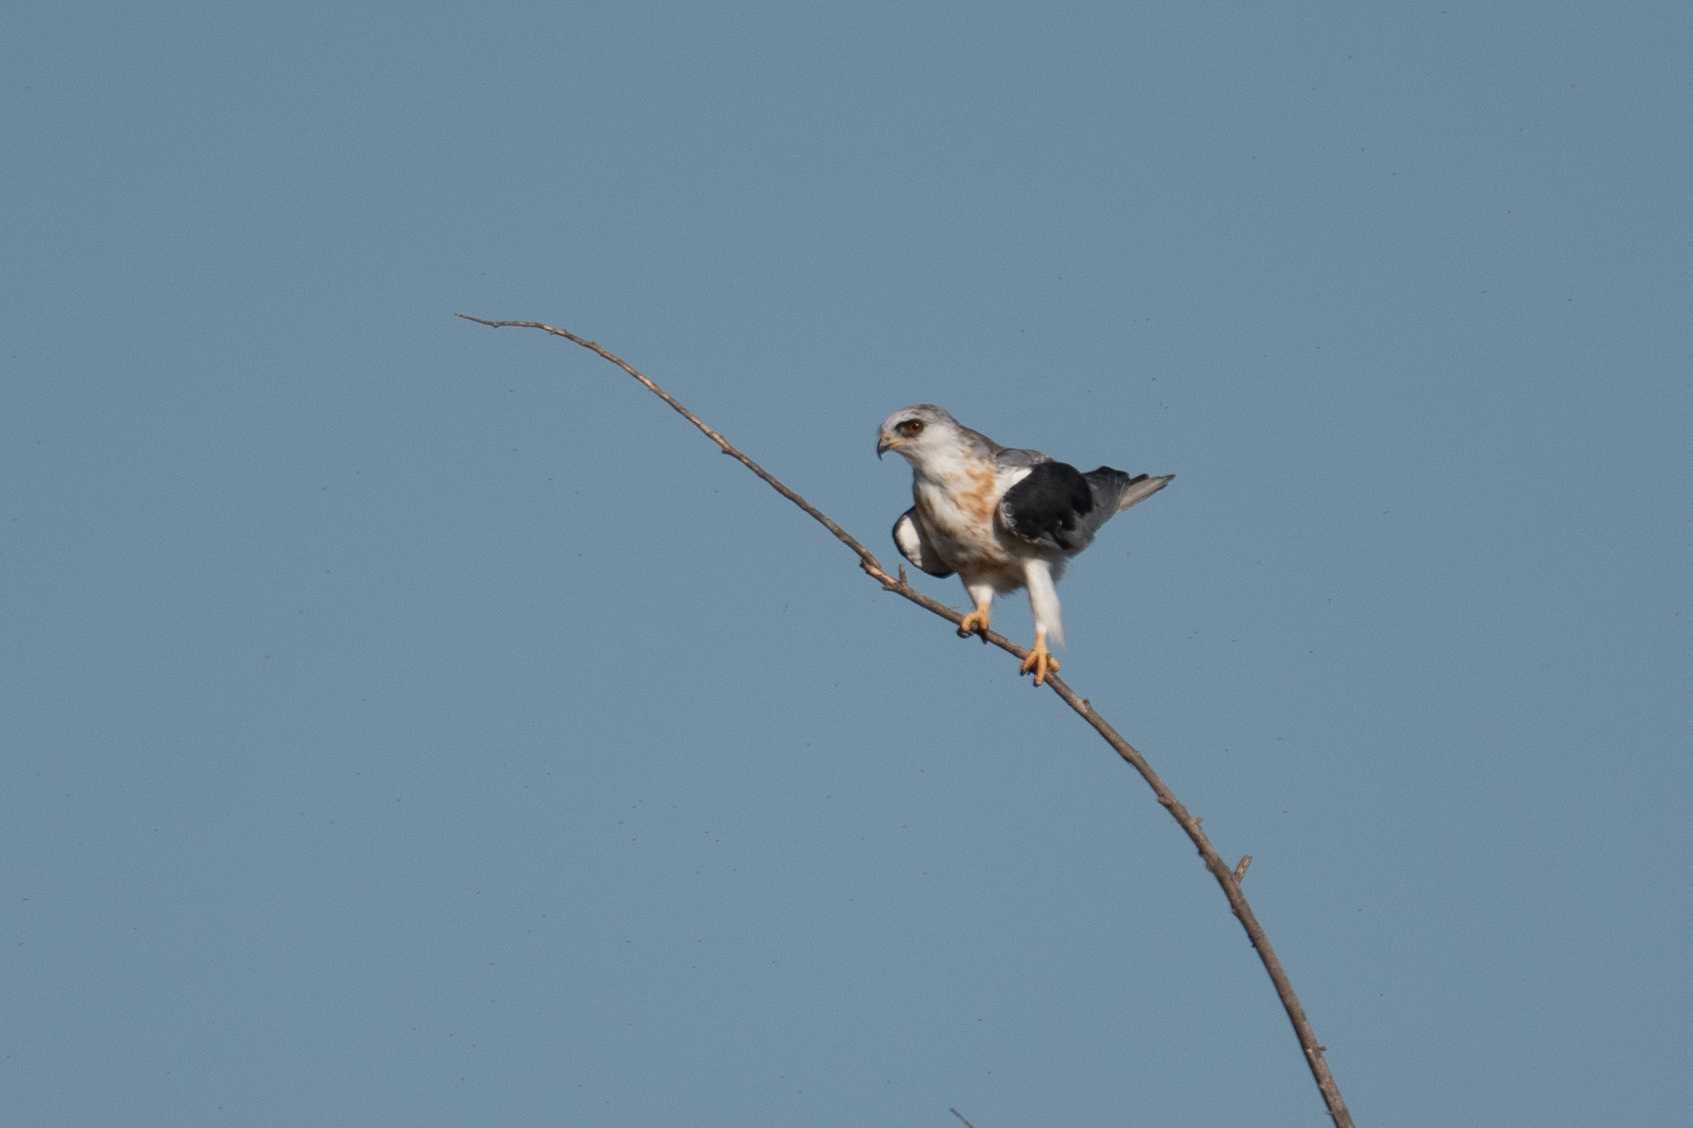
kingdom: Animalia
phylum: Chordata
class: Aves
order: Accipitriformes
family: Accipitridae
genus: Elanus
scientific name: Elanus leucurus
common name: White-tailed kite
